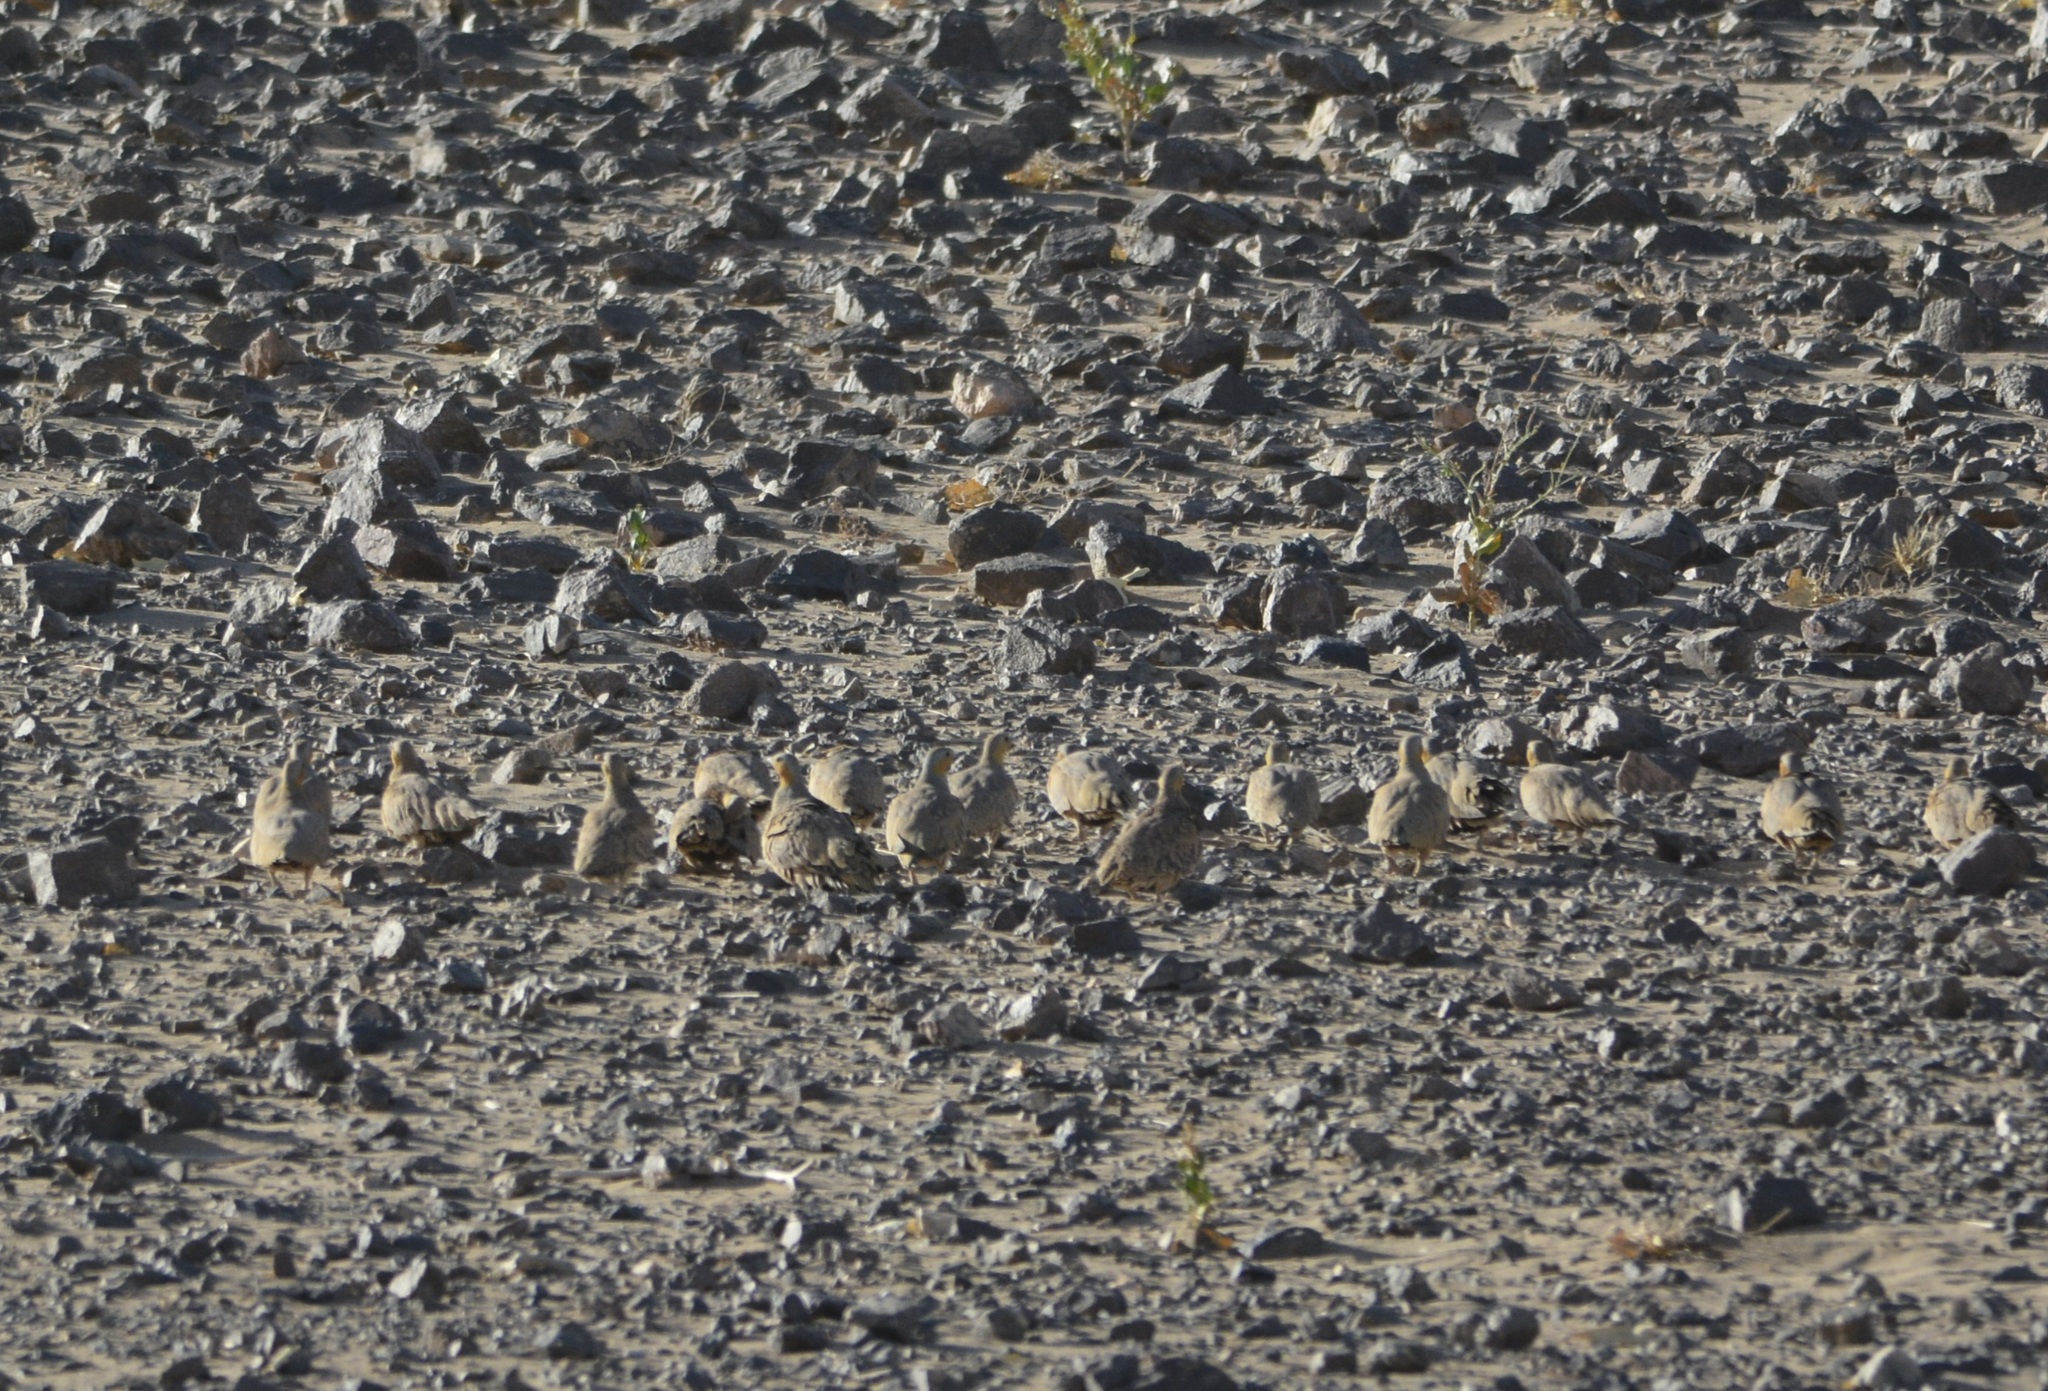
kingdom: Animalia
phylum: Chordata
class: Aves
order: Pteroclidiformes
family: Pteroclididae
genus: Pterocles
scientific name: Pterocles senegallus
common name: Spotted sandgrouse
